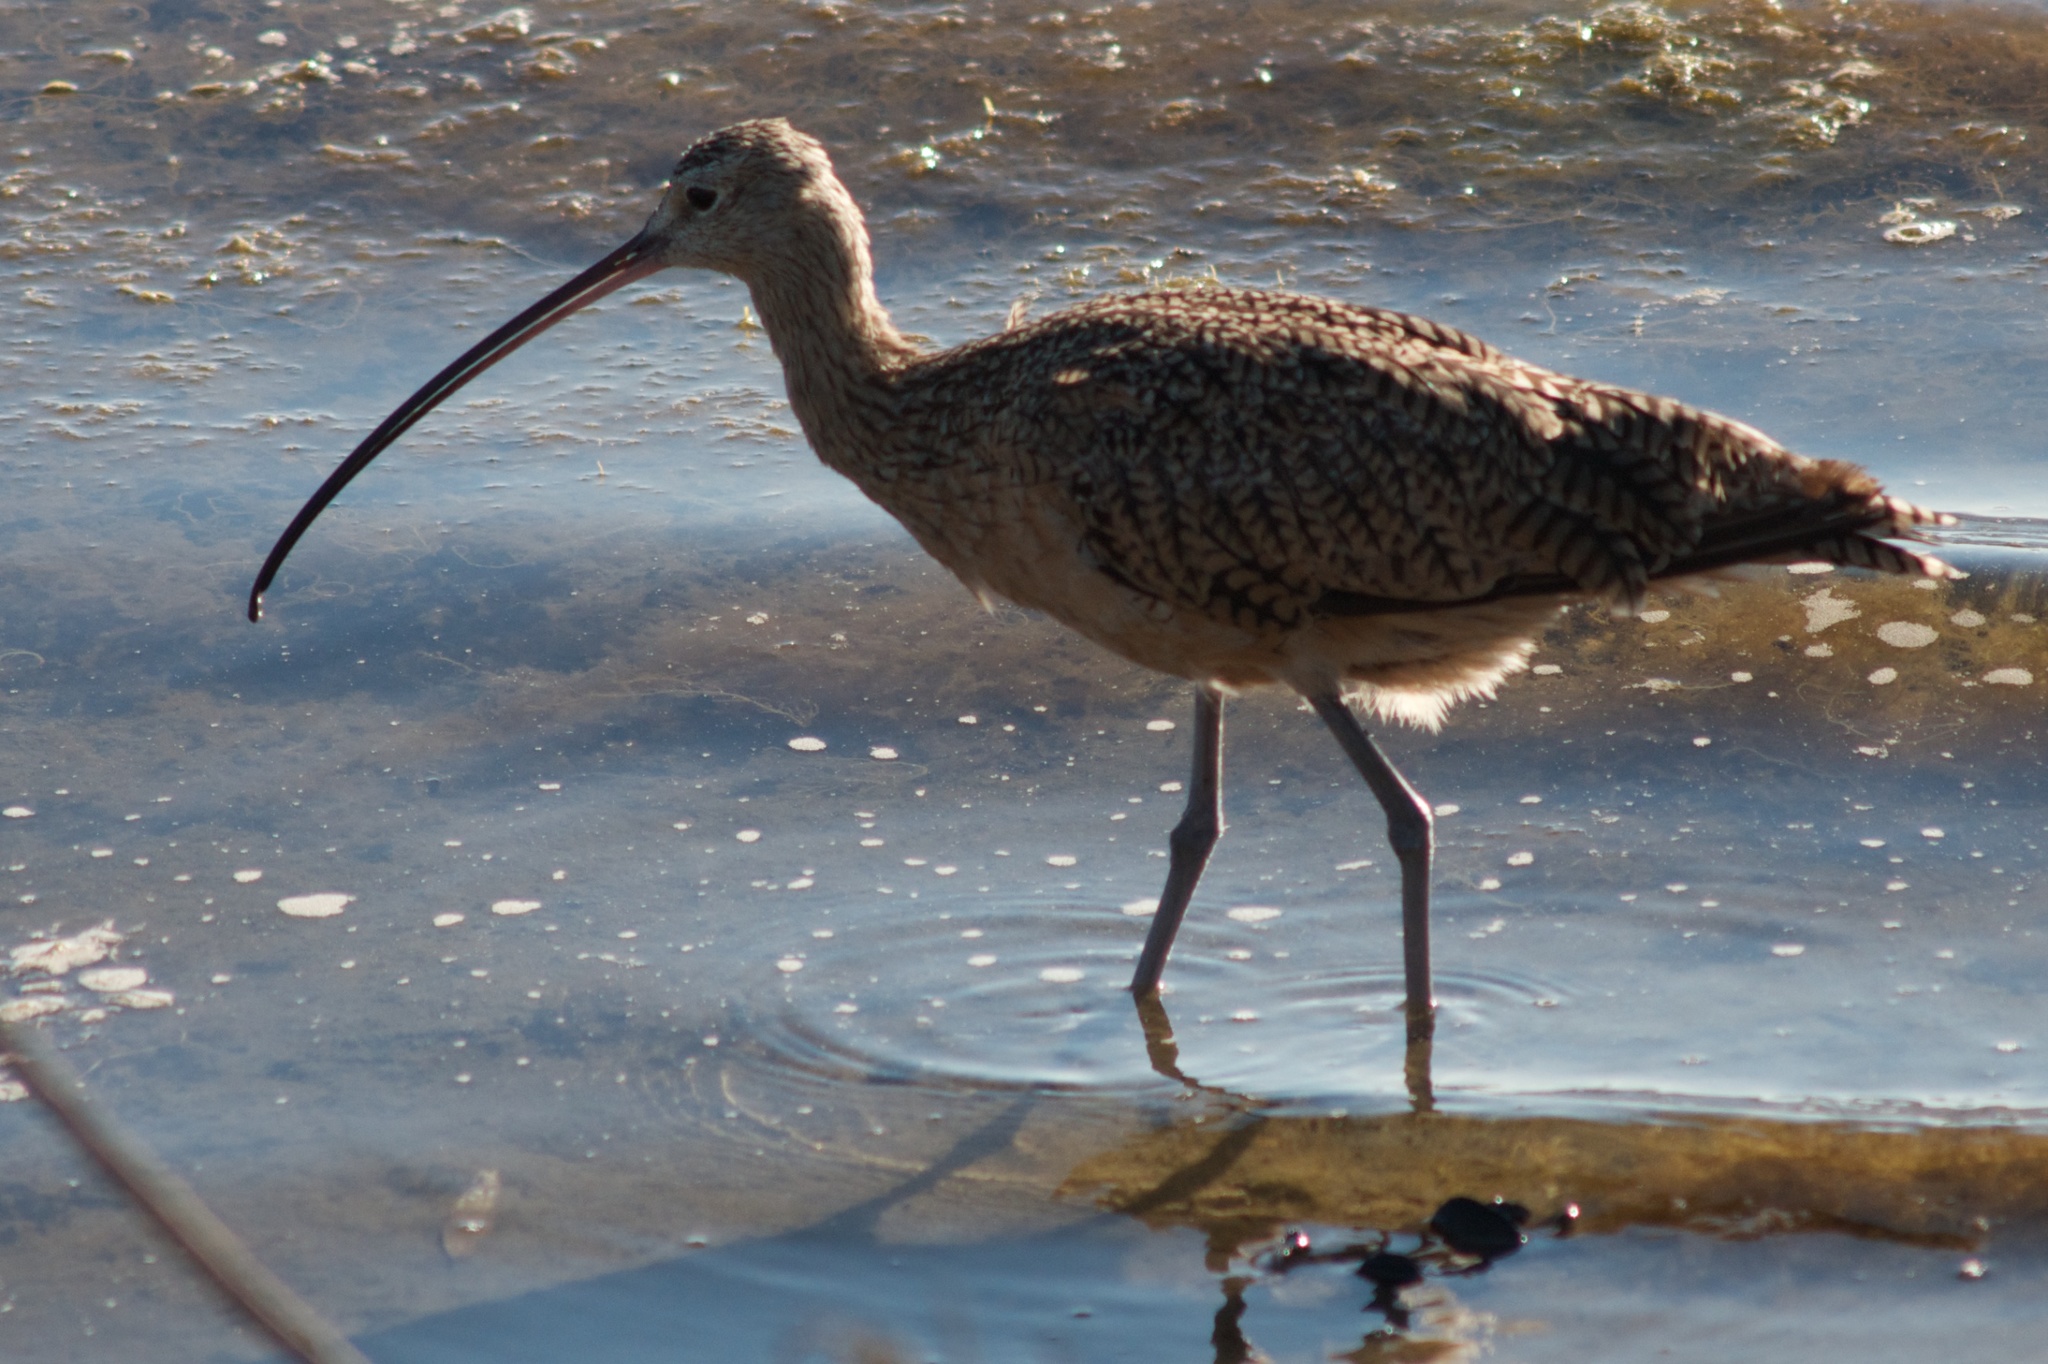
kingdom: Animalia
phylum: Chordata
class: Aves
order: Charadriiformes
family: Scolopacidae
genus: Numenius
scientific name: Numenius americanus
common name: Long-billed curlew
